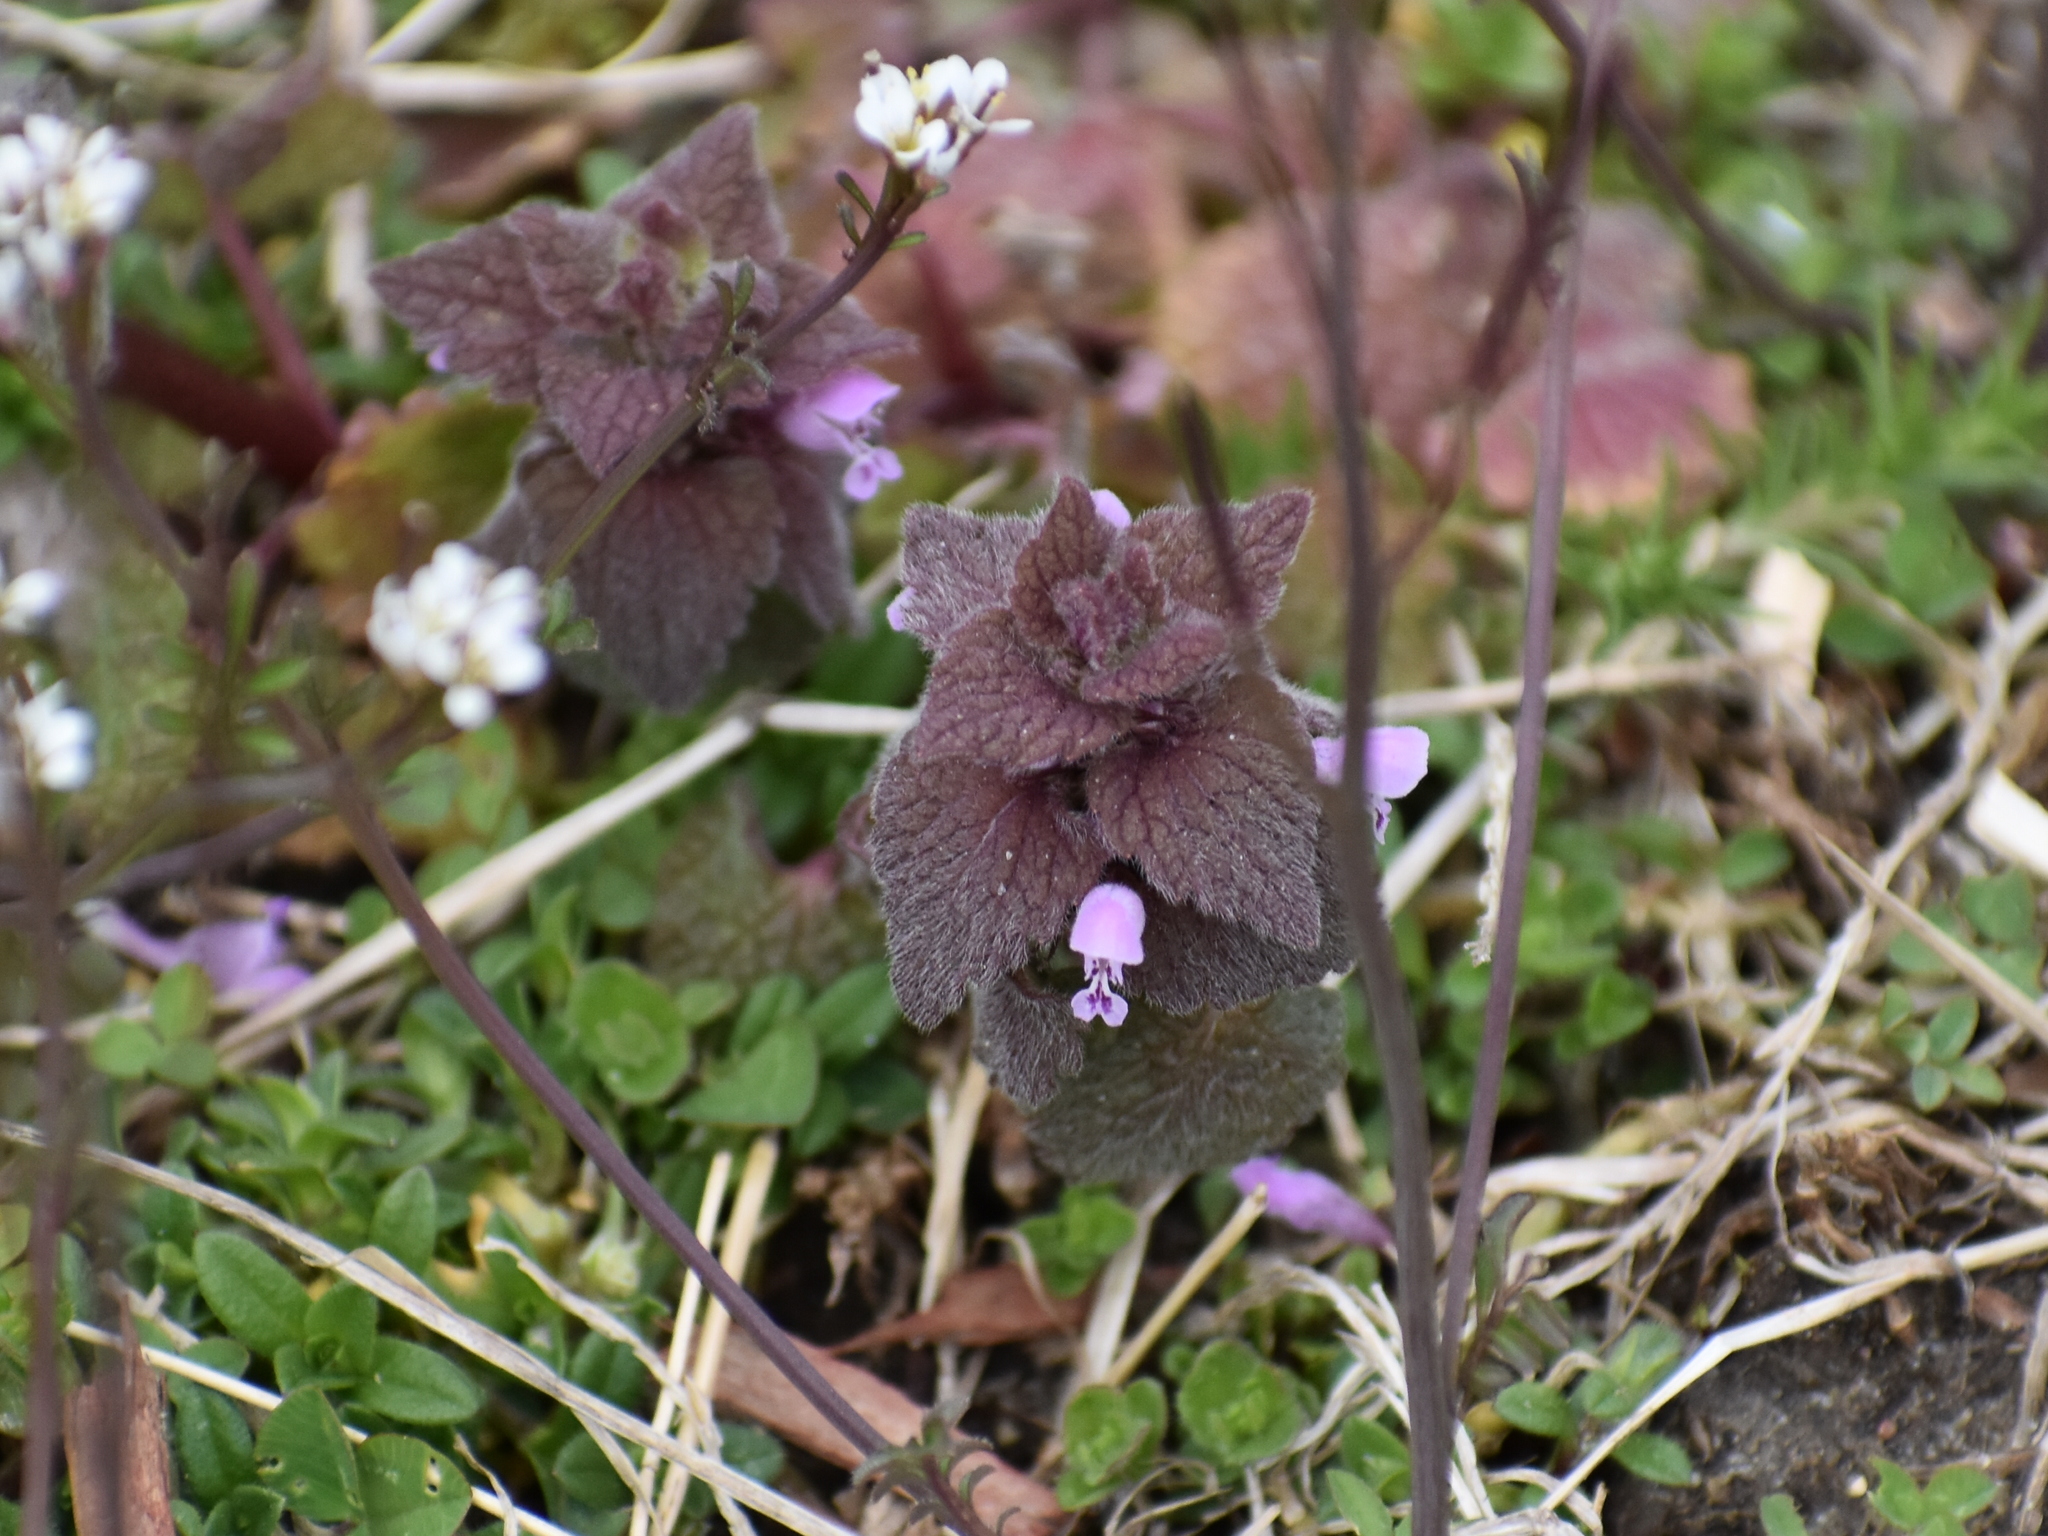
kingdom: Plantae
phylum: Tracheophyta
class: Magnoliopsida
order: Lamiales
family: Lamiaceae
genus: Lamium
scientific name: Lamium purpureum
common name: Red dead-nettle
